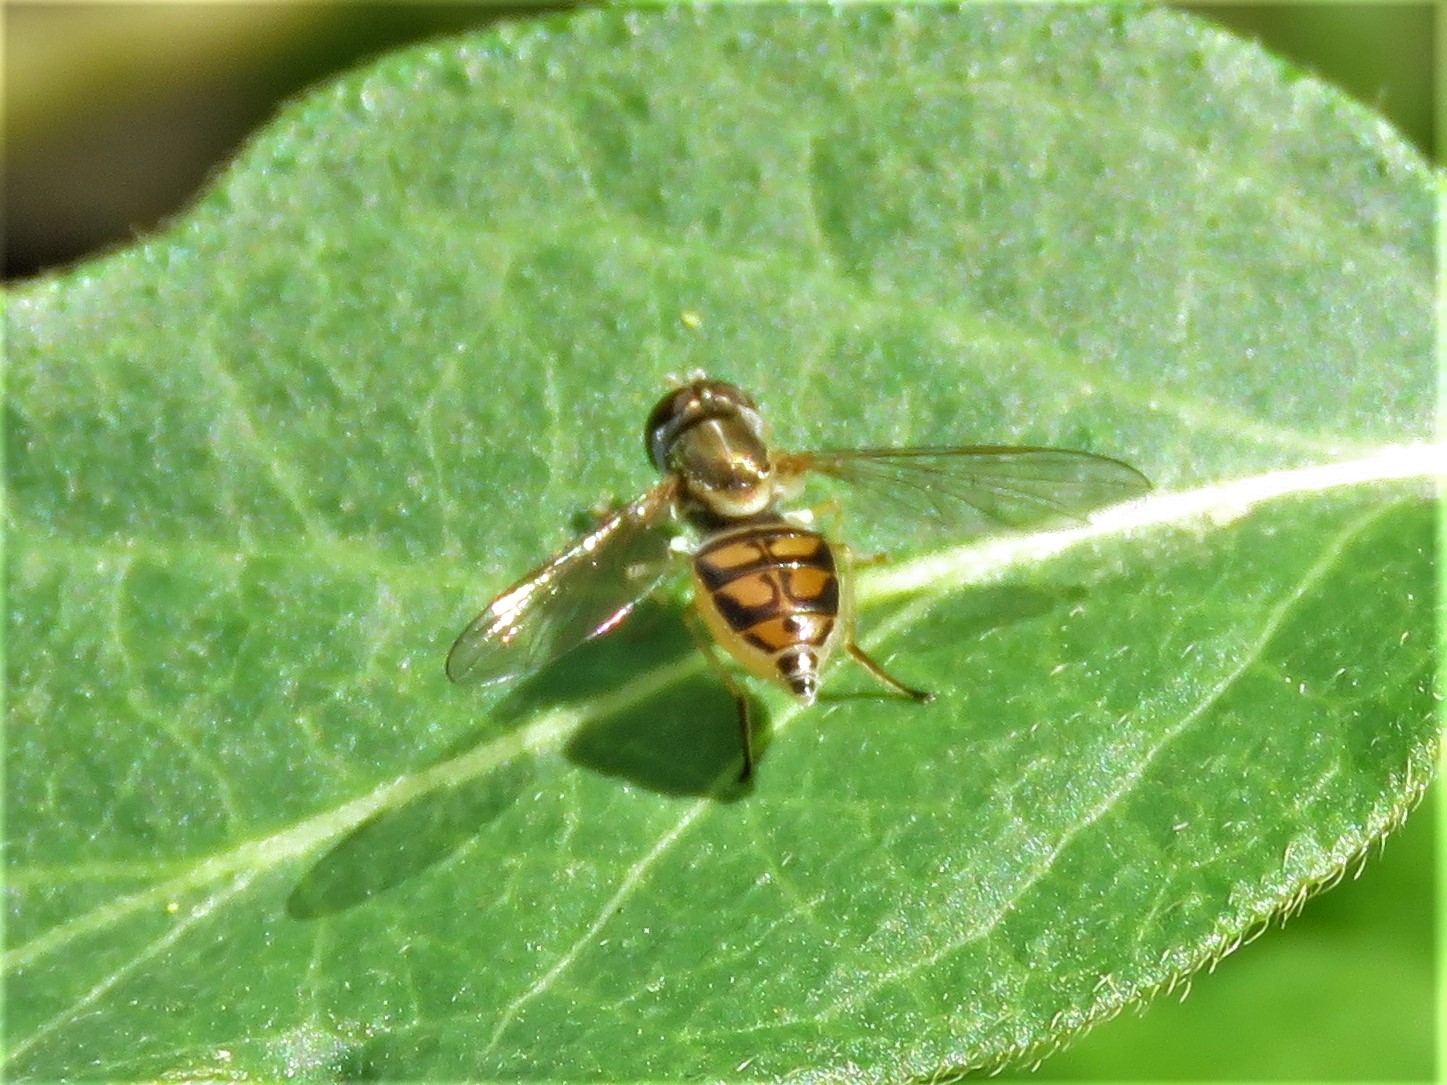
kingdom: Animalia
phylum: Arthropoda
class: Insecta
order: Diptera
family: Syrphidae
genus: Toxomerus
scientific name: Toxomerus marginatus
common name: Syrphid fly
